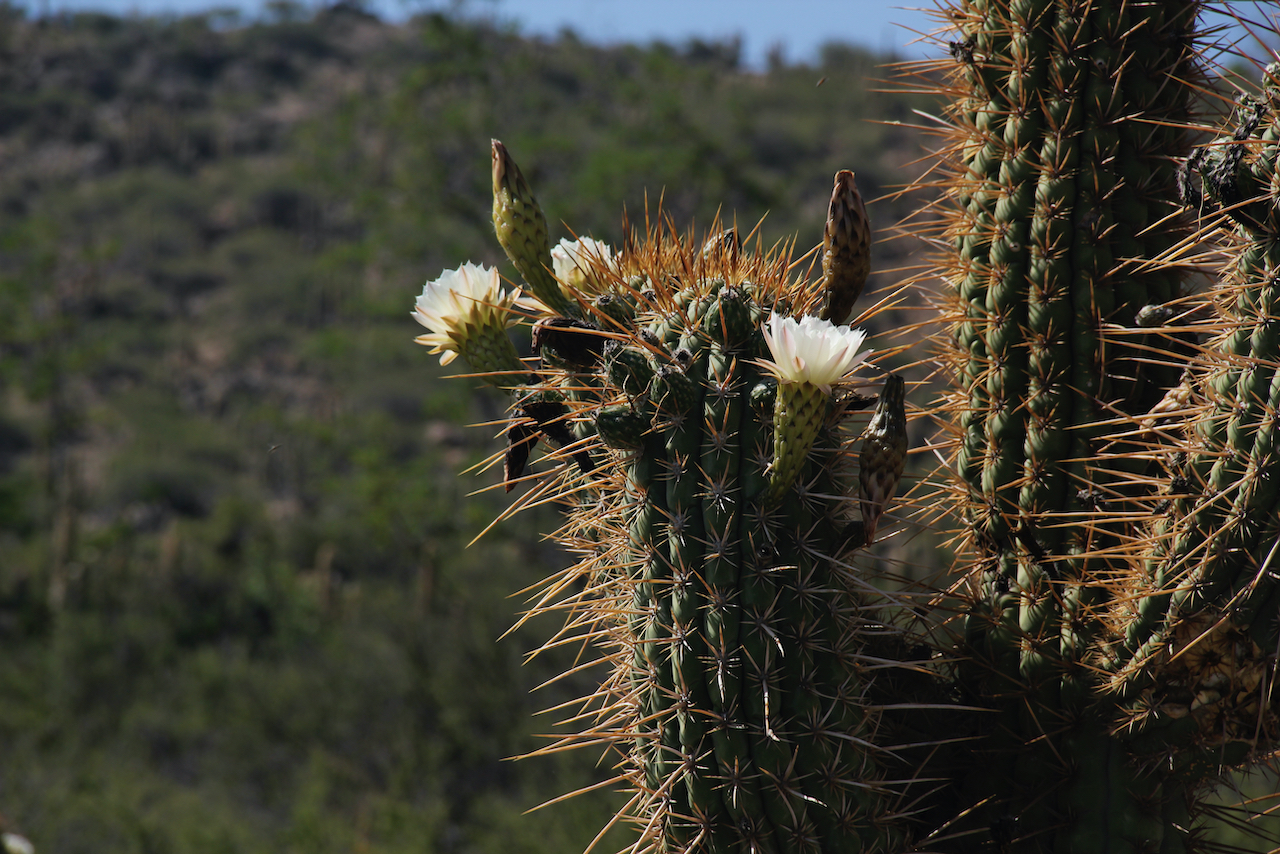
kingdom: Plantae
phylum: Tracheophyta
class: Magnoliopsida
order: Caryophyllales
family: Cactaceae
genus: Leucostele
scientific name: Leucostele chiloensis
